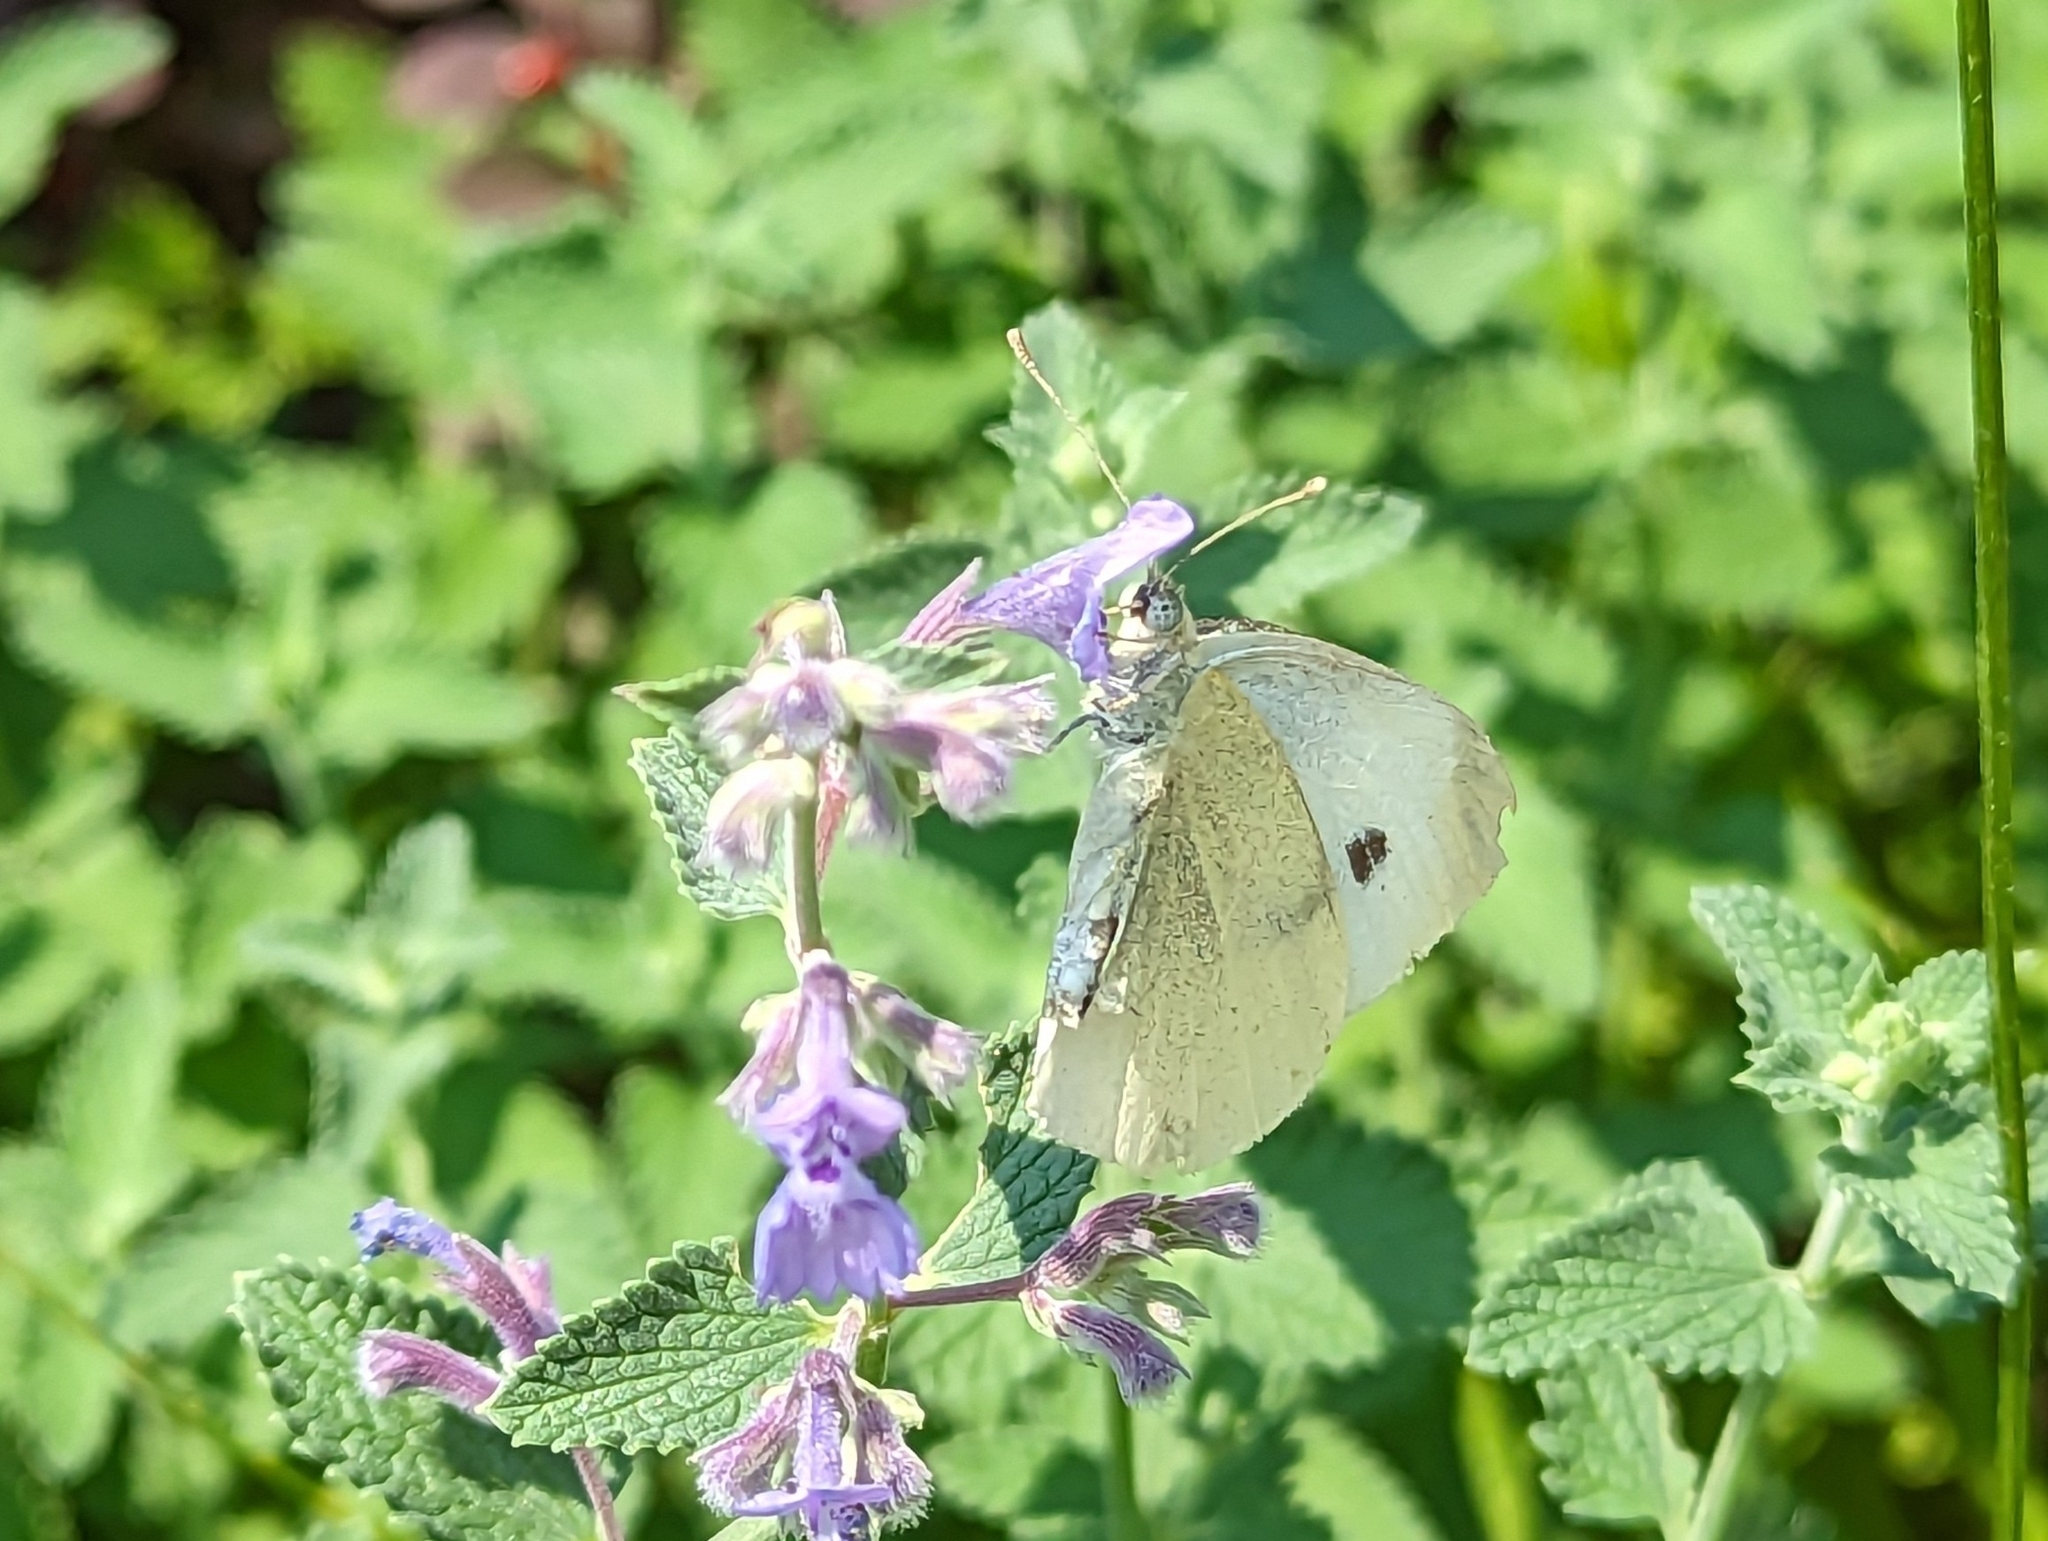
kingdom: Animalia
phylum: Arthropoda
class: Insecta
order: Lepidoptera
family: Pieridae
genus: Pieris
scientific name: Pieris rapae
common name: Small white
